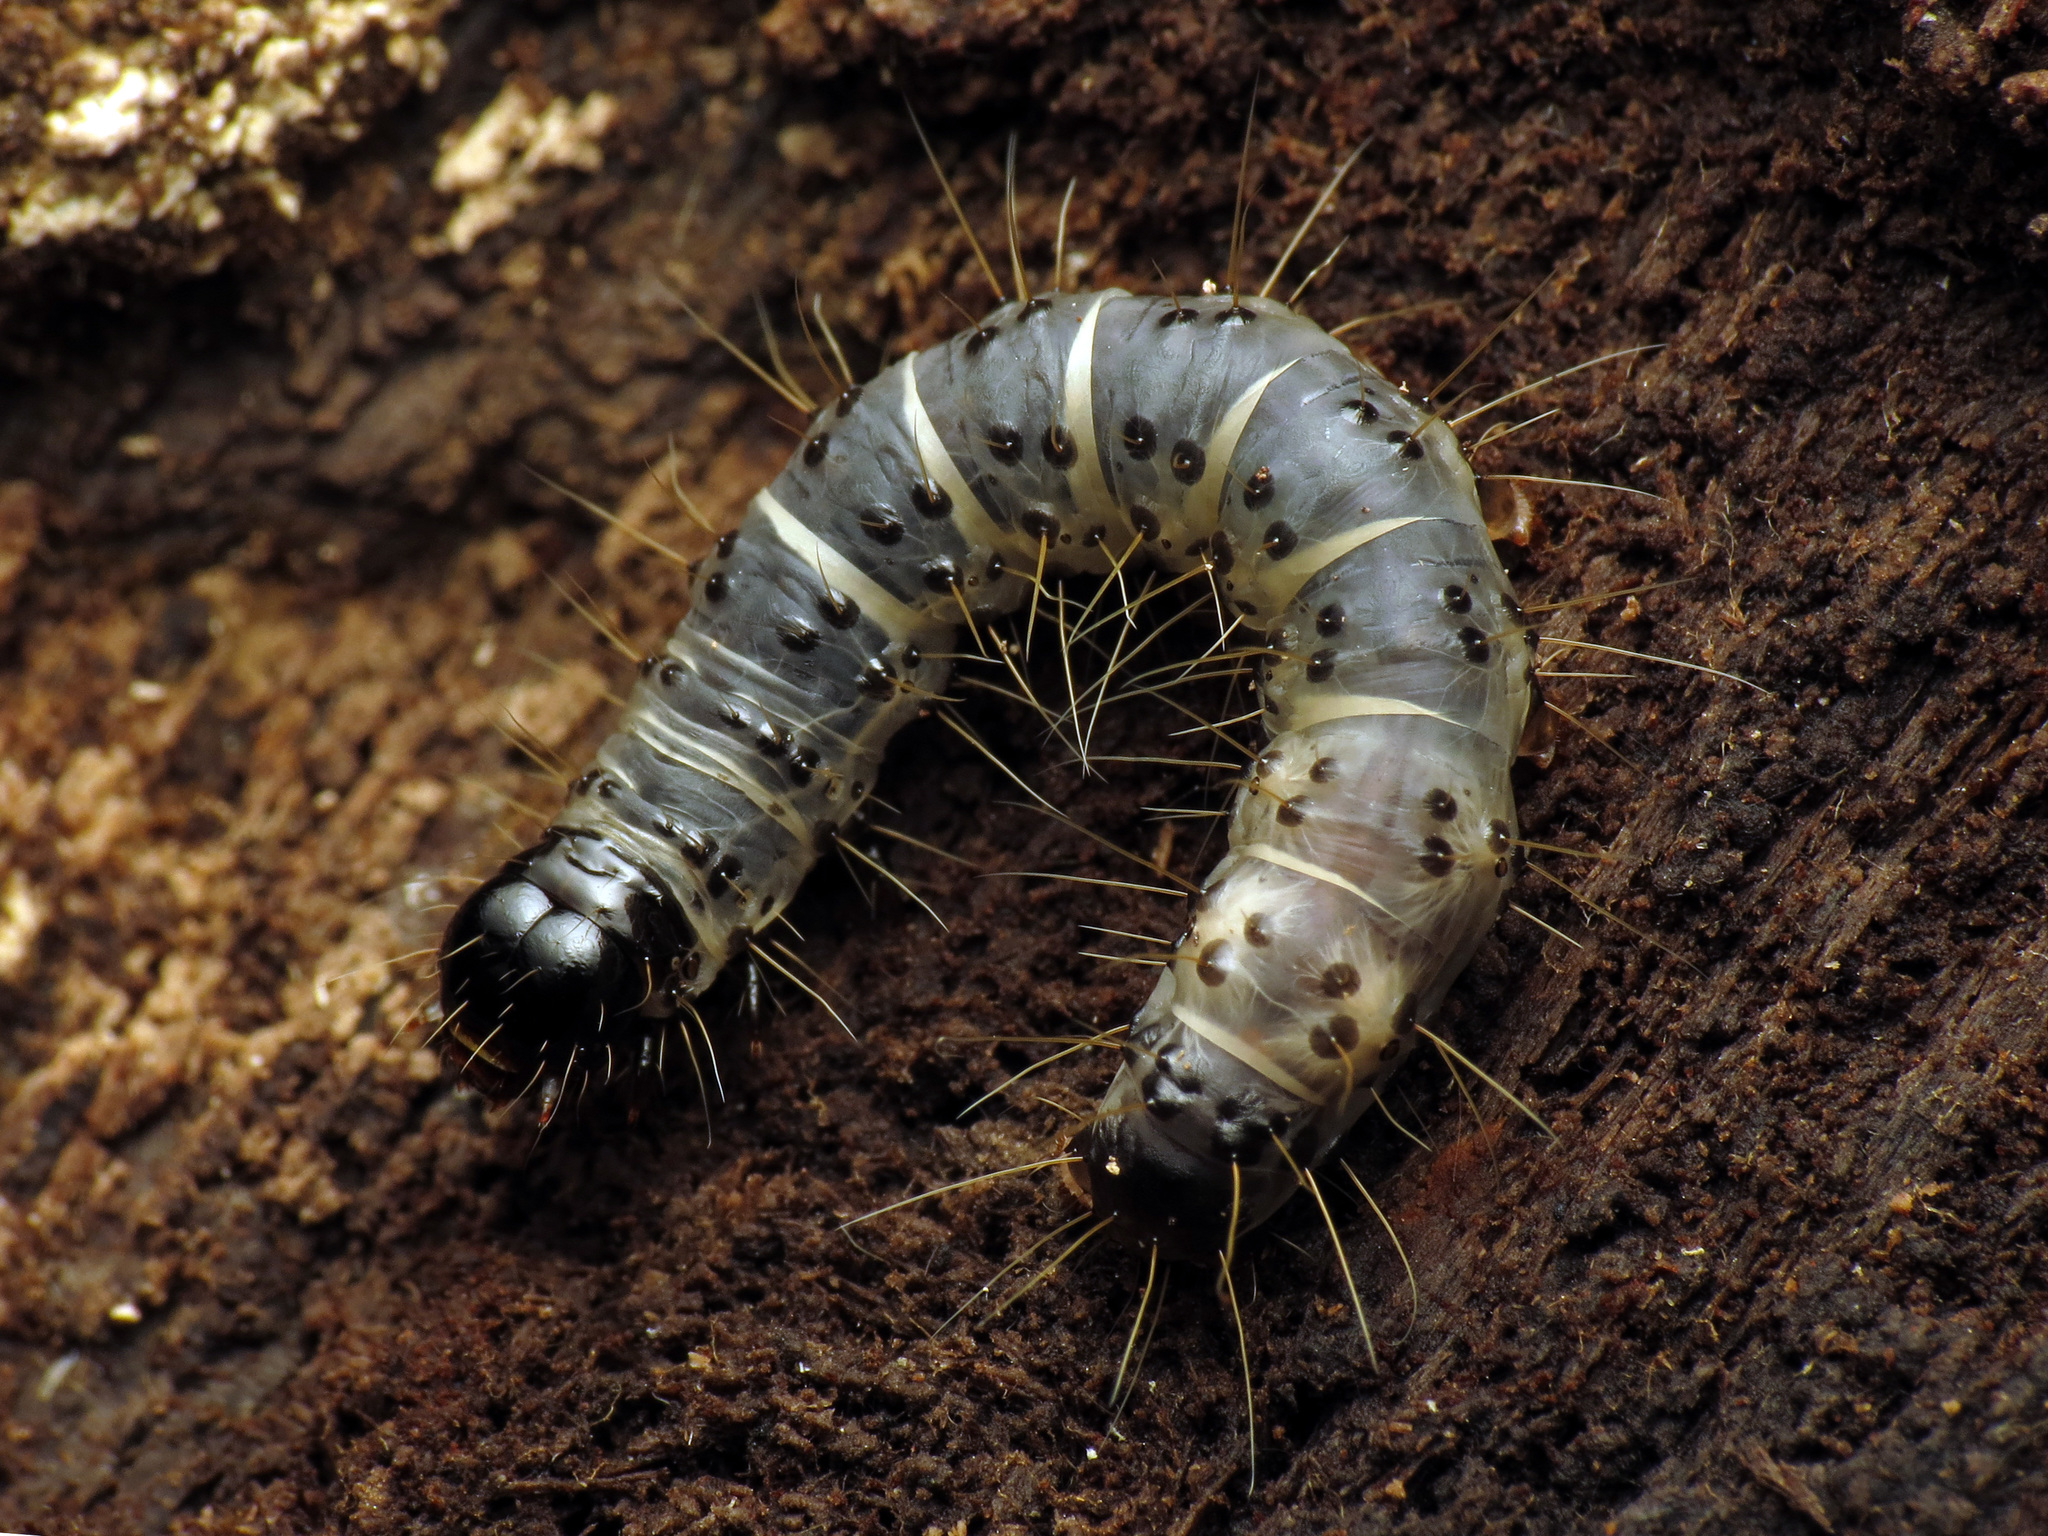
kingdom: Animalia
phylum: Arthropoda
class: Insecta
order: Lepidoptera
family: Erebidae
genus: Scolecocampa
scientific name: Scolecocampa liburna
